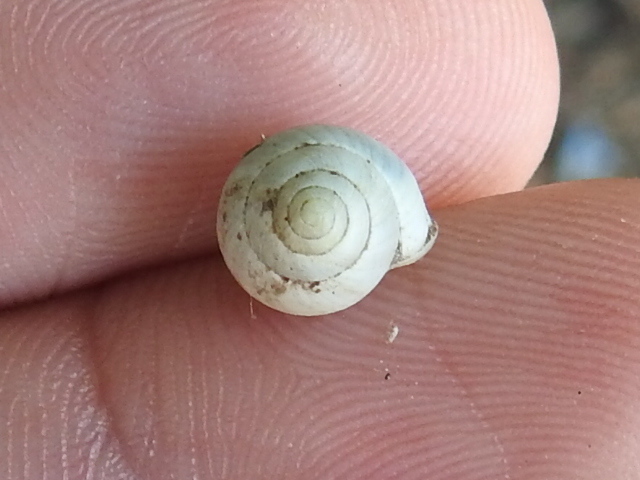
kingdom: Animalia
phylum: Mollusca
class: Gastropoda
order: Cycloneritida
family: Helicinidae
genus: Helicina
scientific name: Helicina orbiculata
